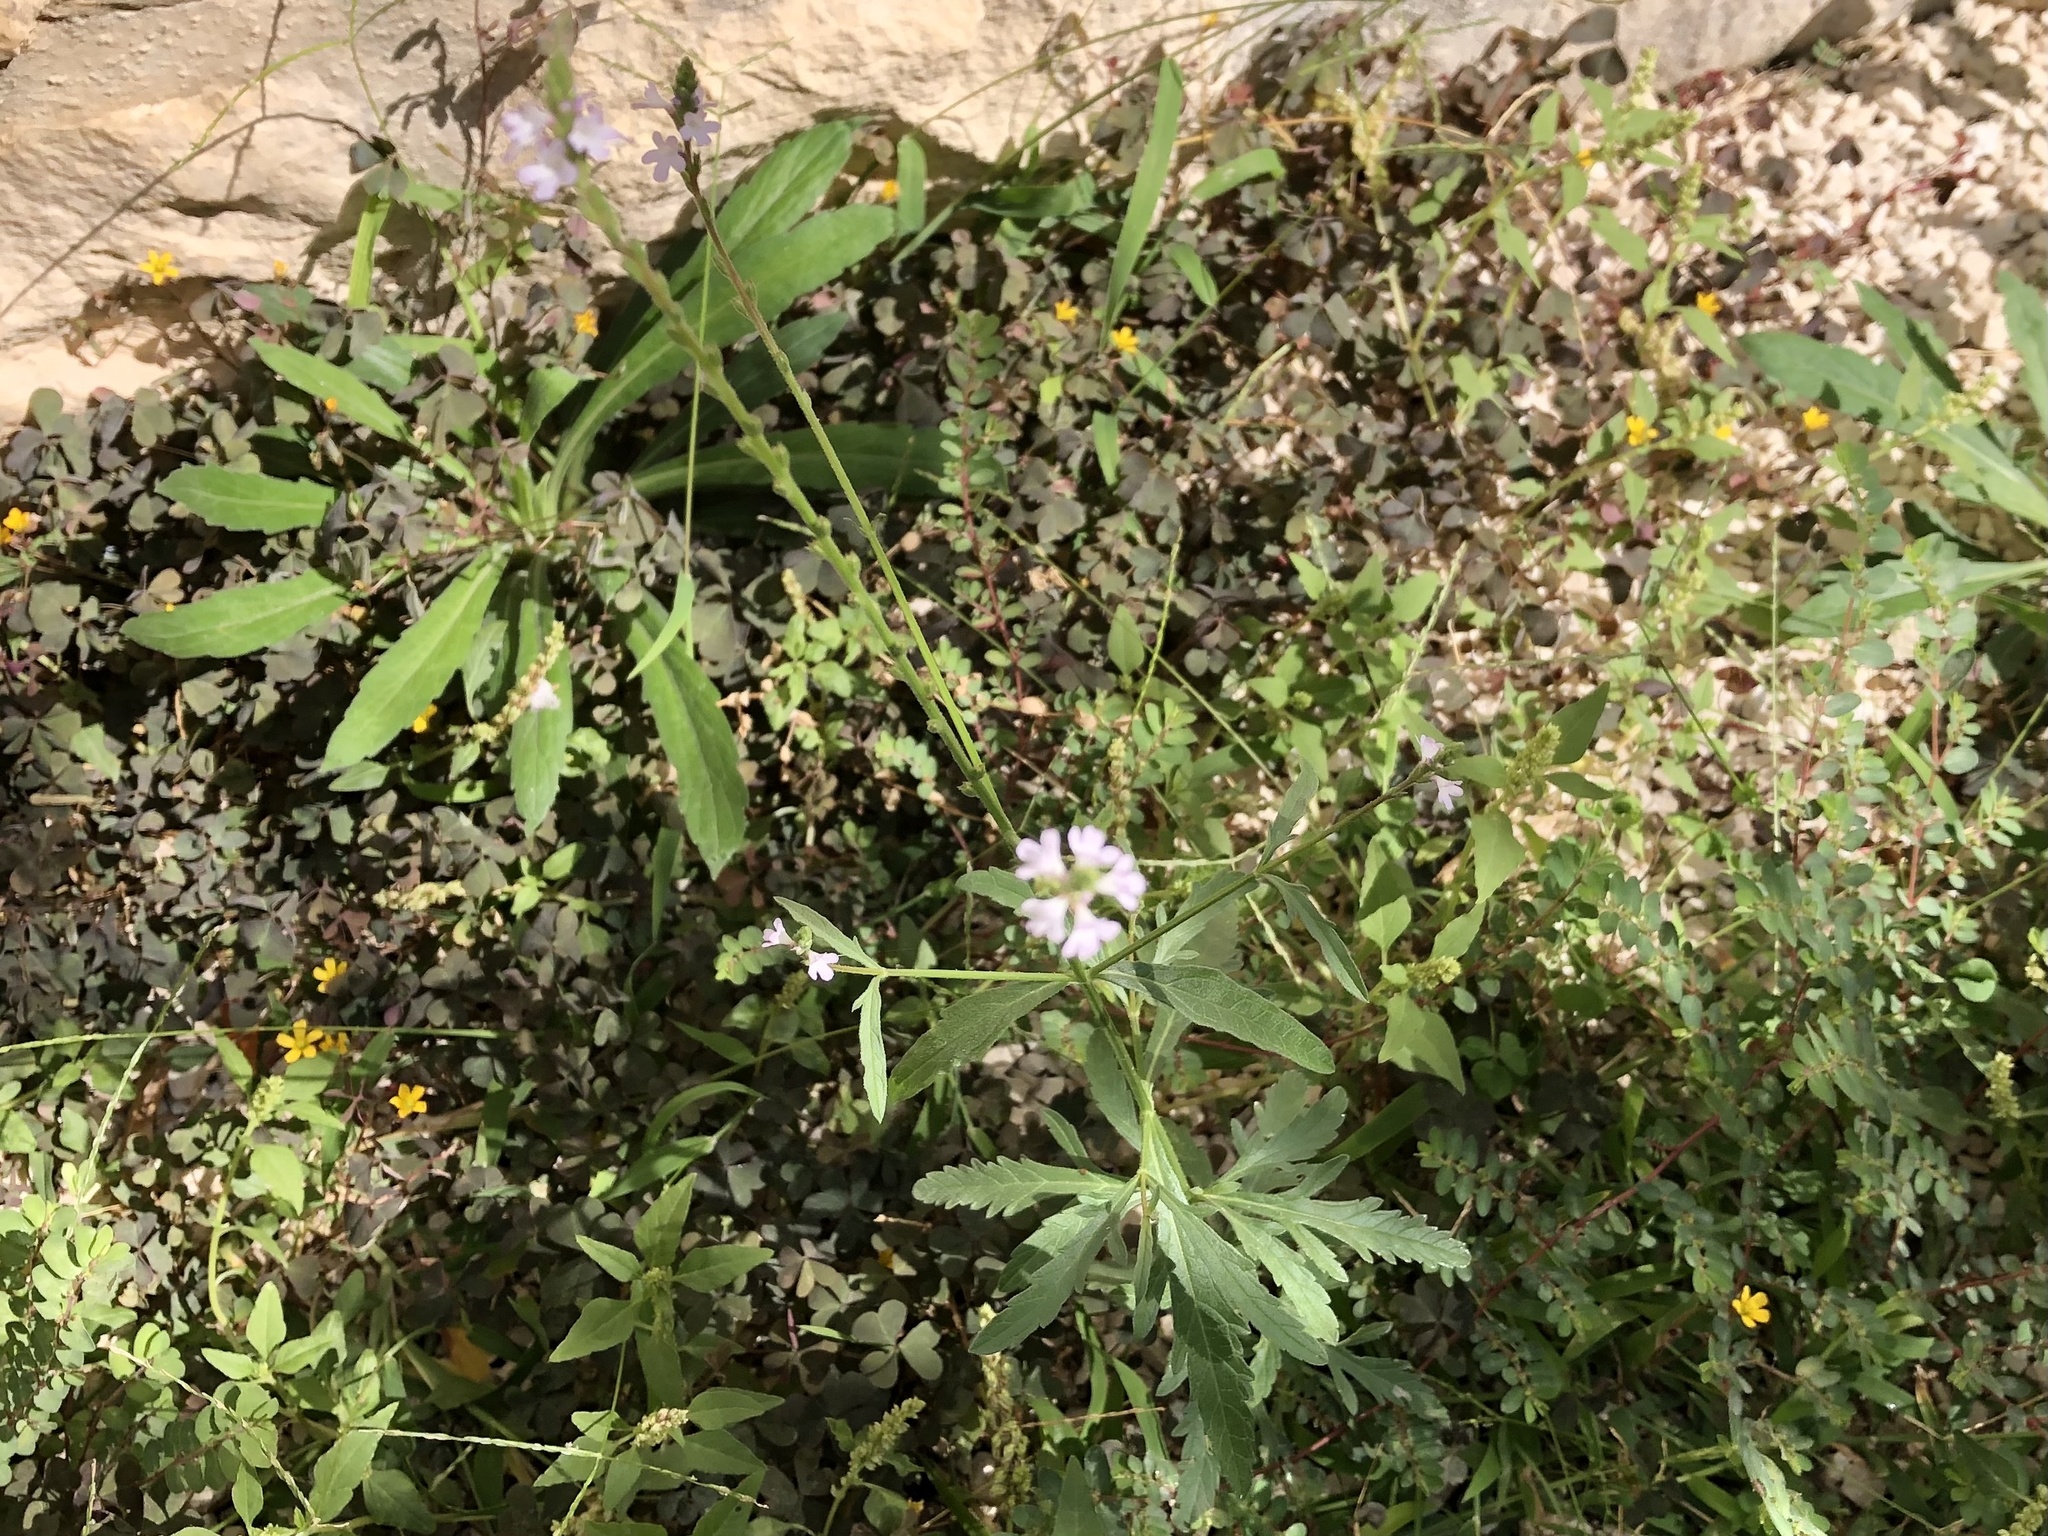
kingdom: Plantae
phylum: Tracheophyta
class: Magnoliopsida
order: Lamiales
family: Verbenaceae
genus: Verbena
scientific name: Verbena officinalis
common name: Vervain
